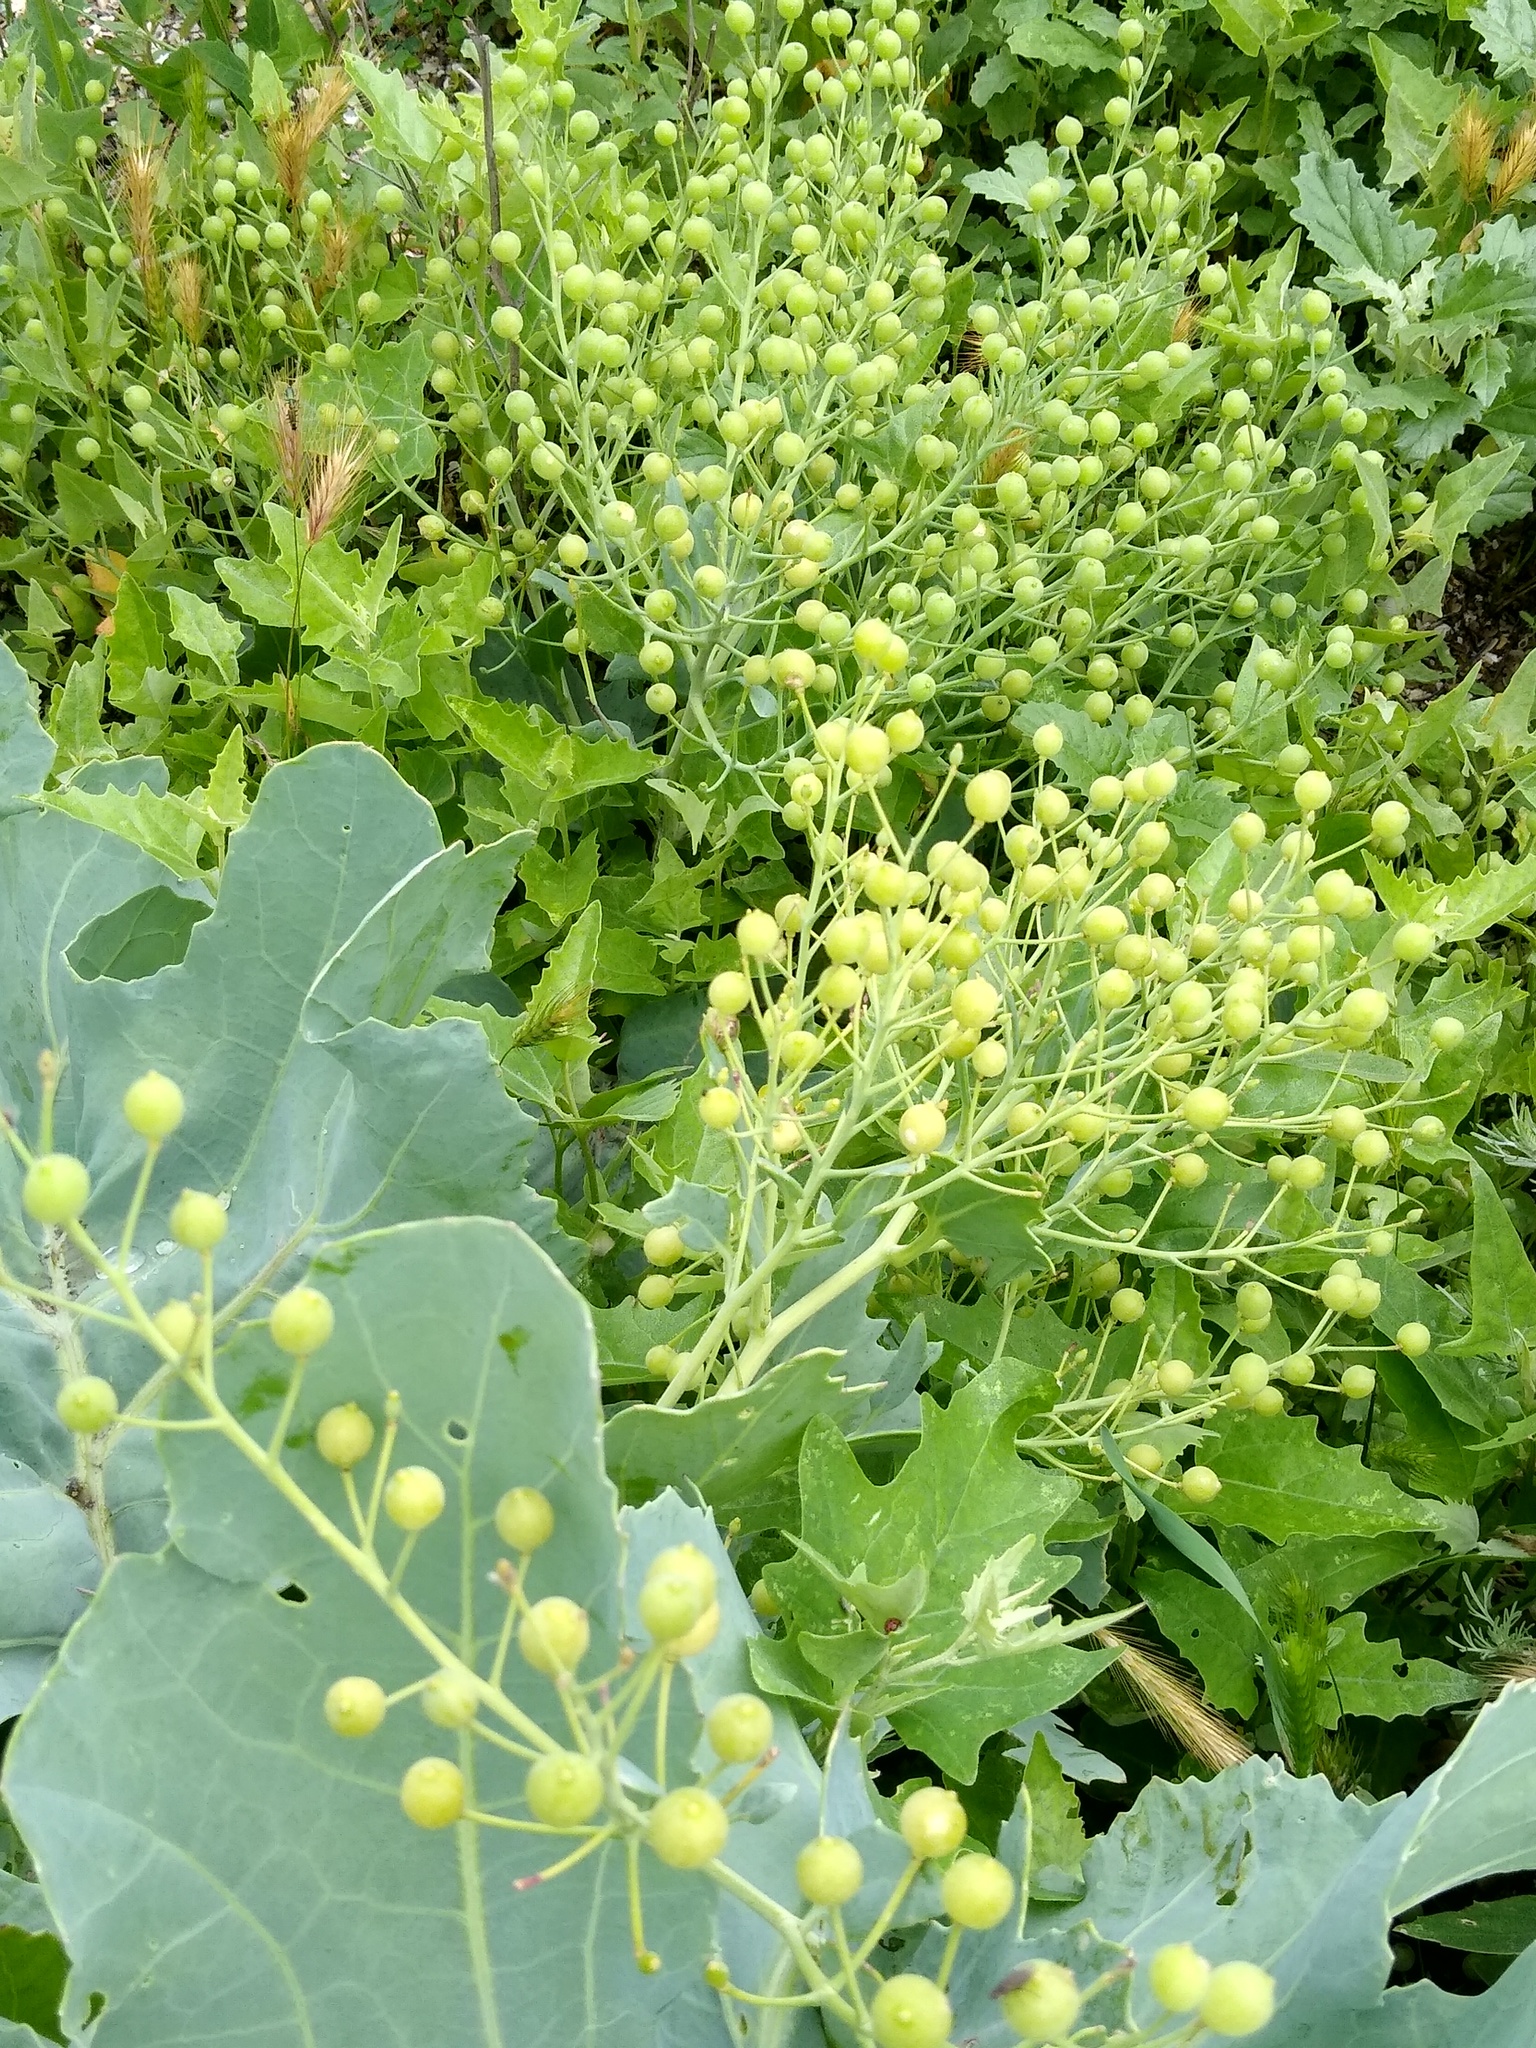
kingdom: Plantae
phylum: Tracheophyta
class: Magnoliopsida
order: Brassicales
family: Brassicaceae
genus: Crambe
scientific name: Crambe maritima
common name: Sea-kale
